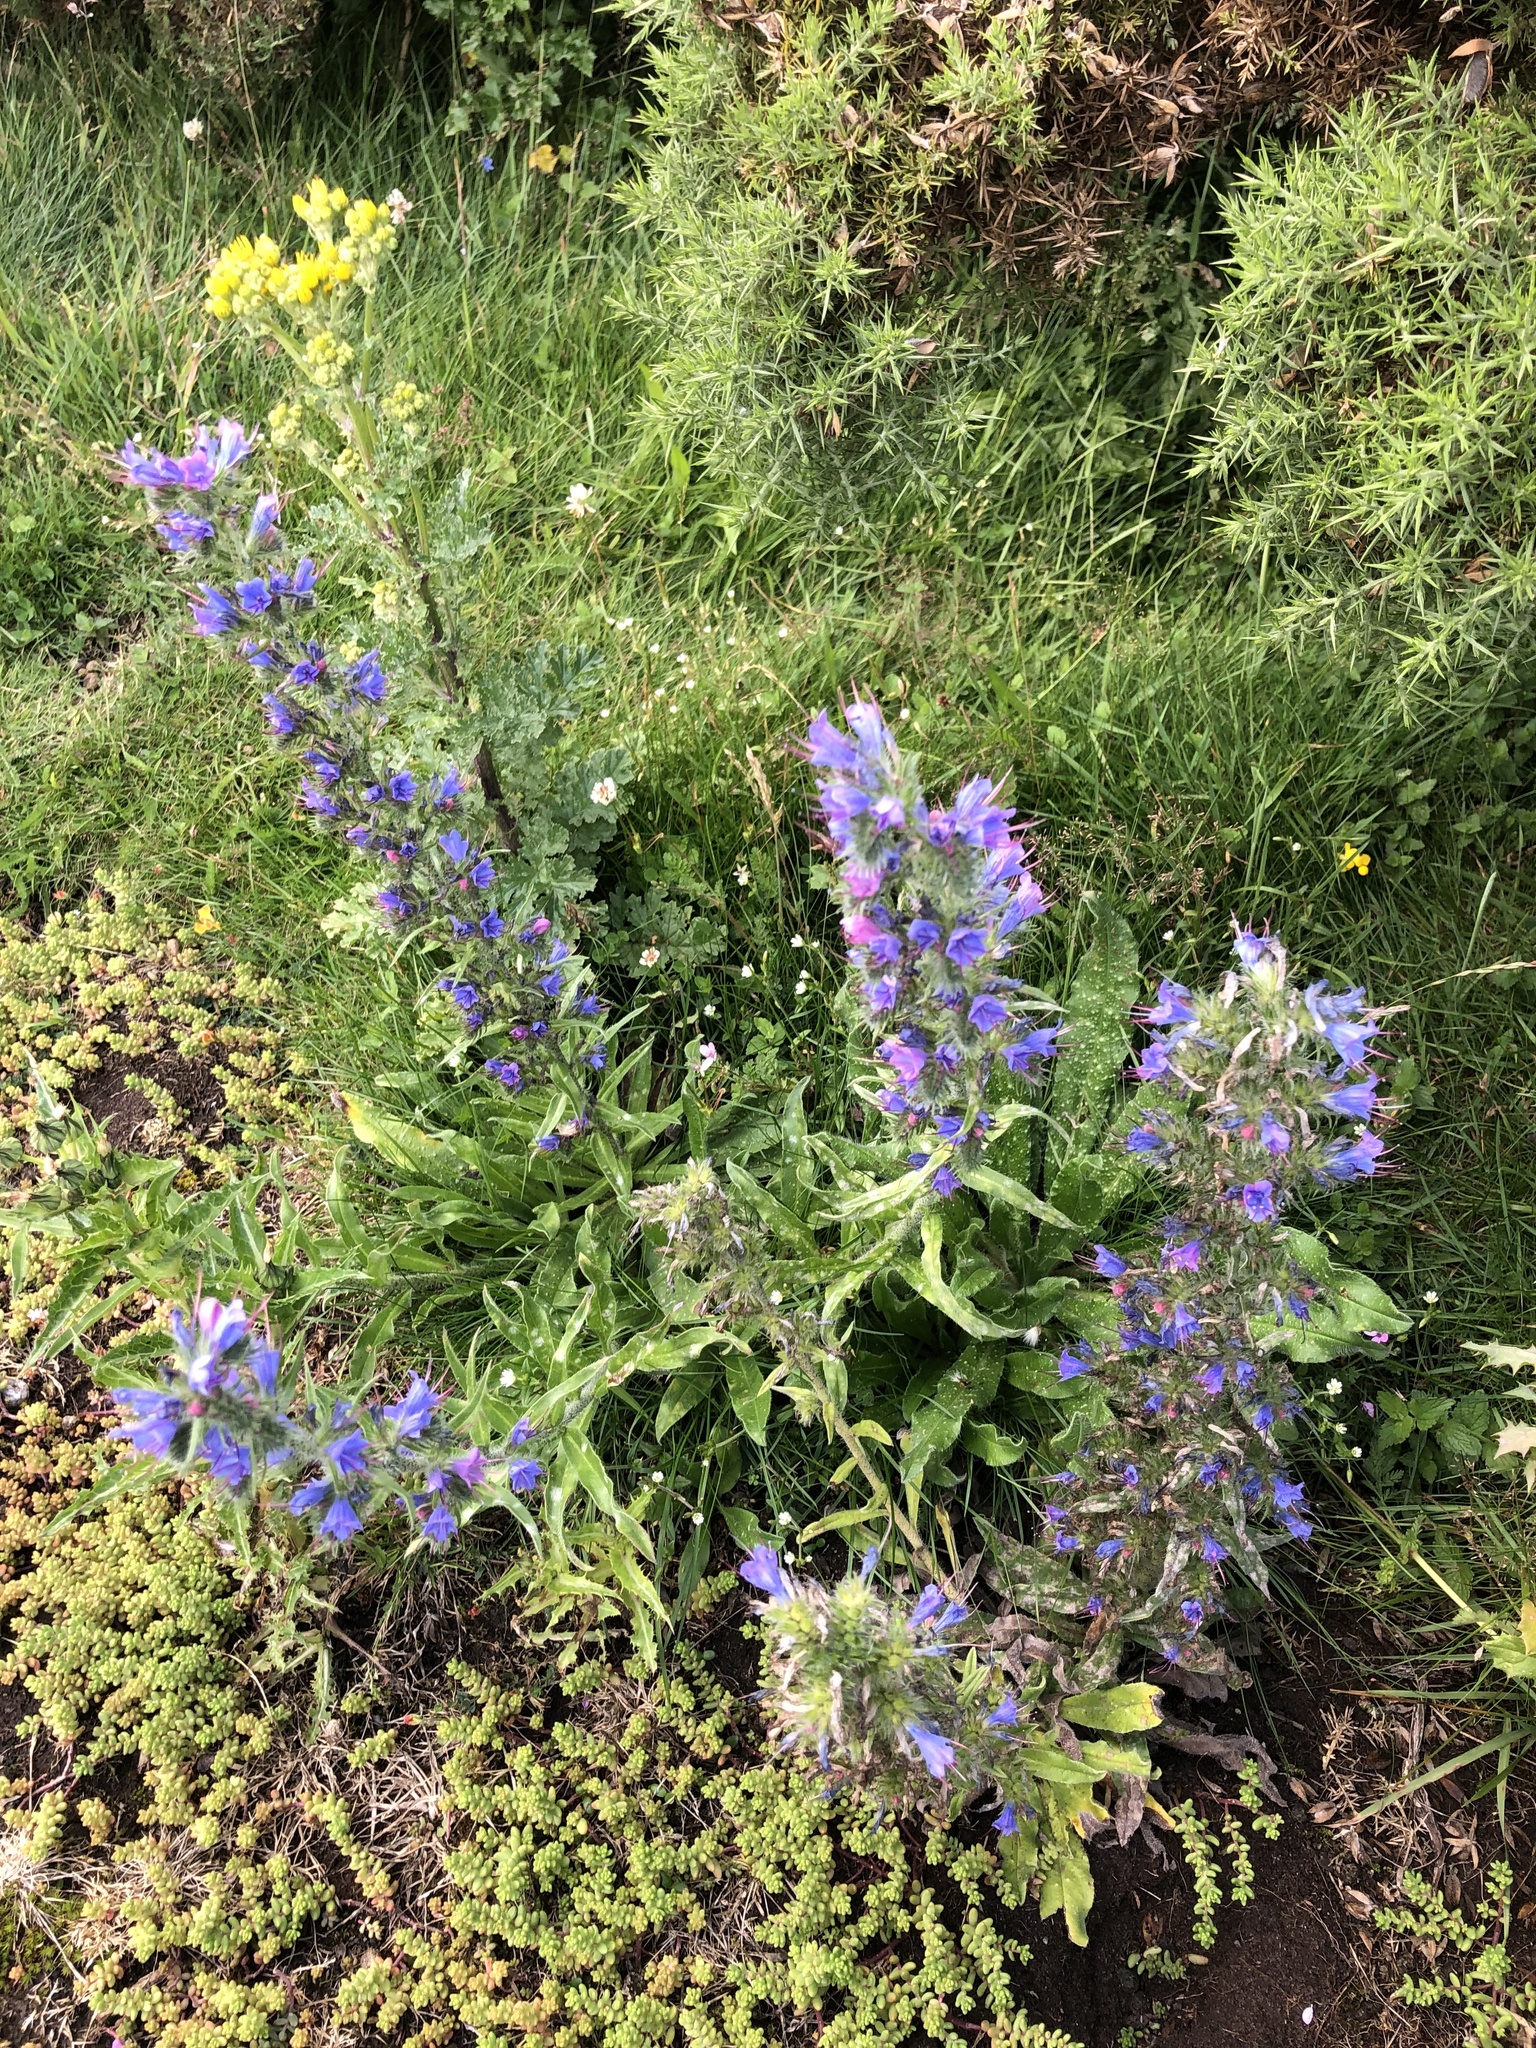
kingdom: Plantae
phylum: Tracheophyta
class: Magnoliopsida
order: Boraginales
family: Boraginaceae
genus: Echium
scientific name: Echium vulgare
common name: Common viper's bugloss
